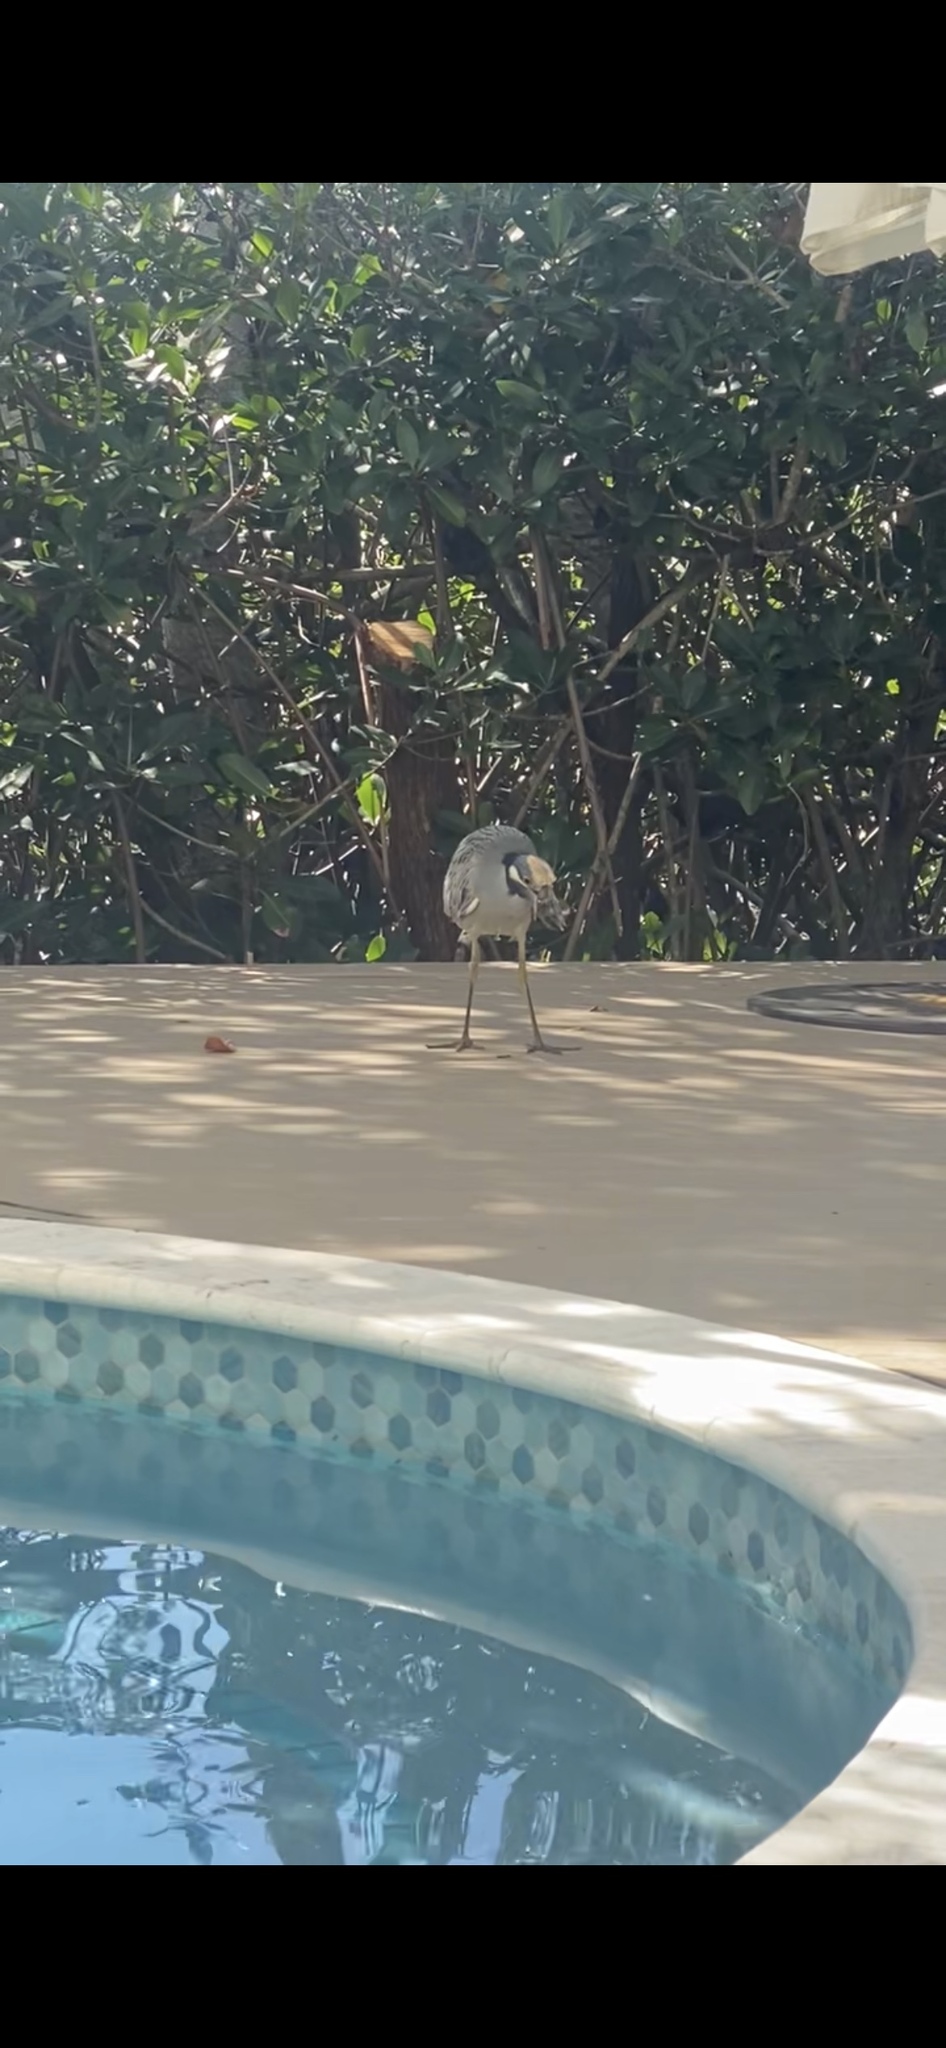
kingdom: Animalia
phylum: Chordata
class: Aves
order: Pelecaniformes
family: Ardeidae
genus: Nyctanassa
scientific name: Nyctanassa violacea
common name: Yellow-crowned night heron
